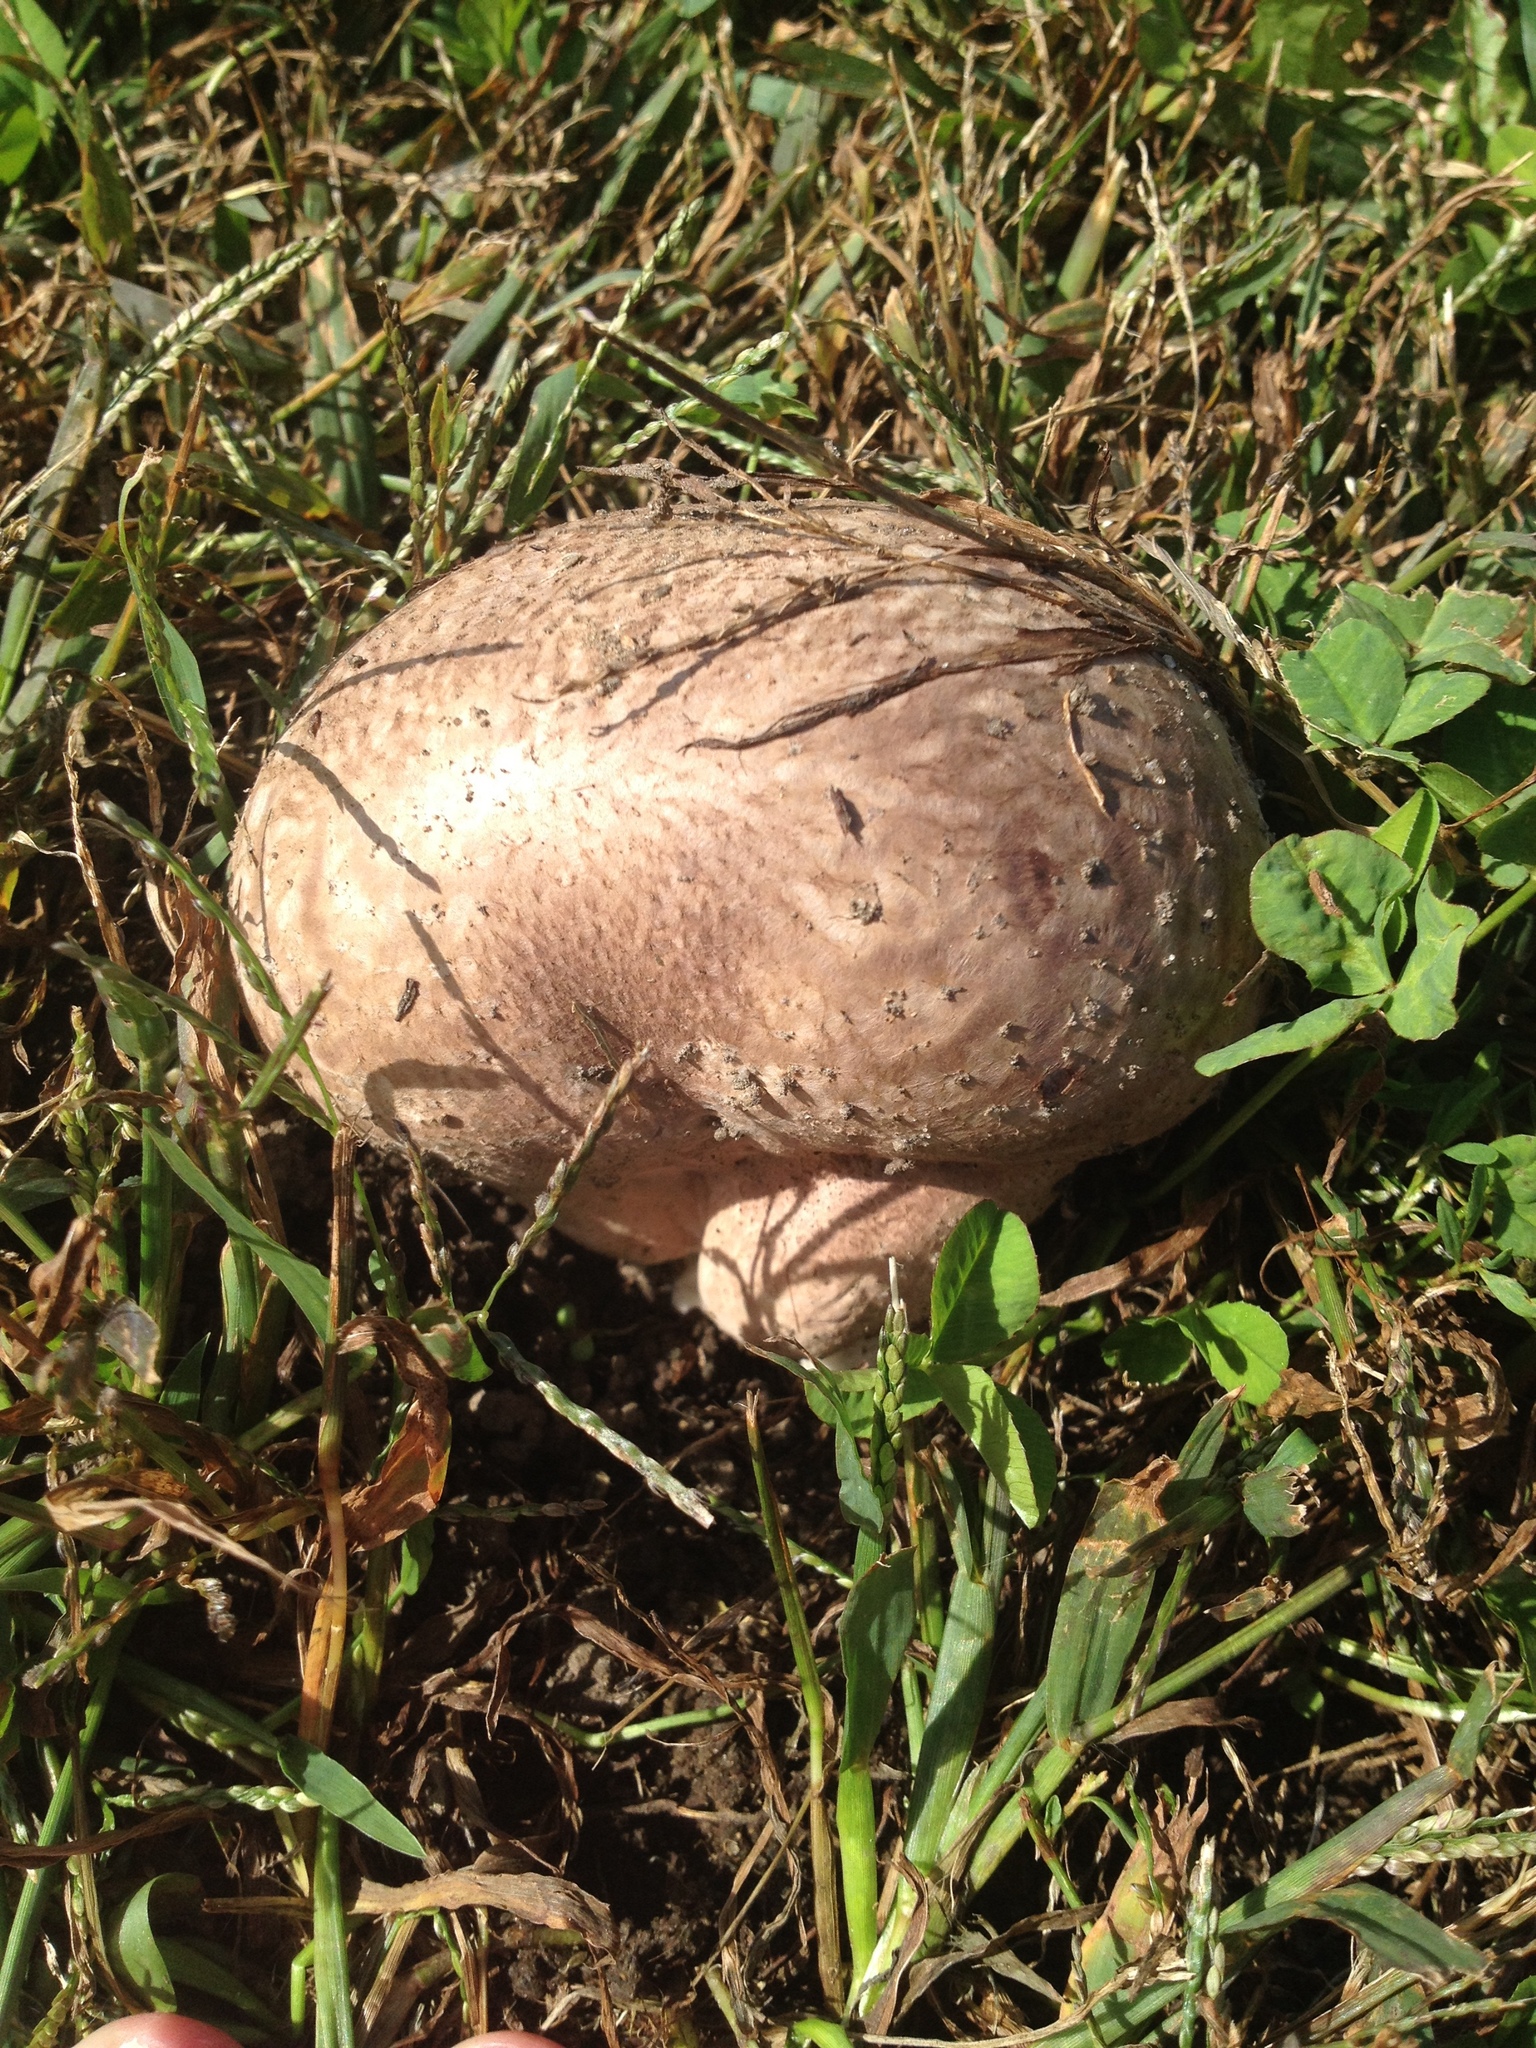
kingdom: Fungi
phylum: Basidiomycota
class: Agaricomycetes
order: Agaricales
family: Lycoperdaceae
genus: Calvatia
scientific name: Calvatia cyathiformis
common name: Purple-spored puffball
